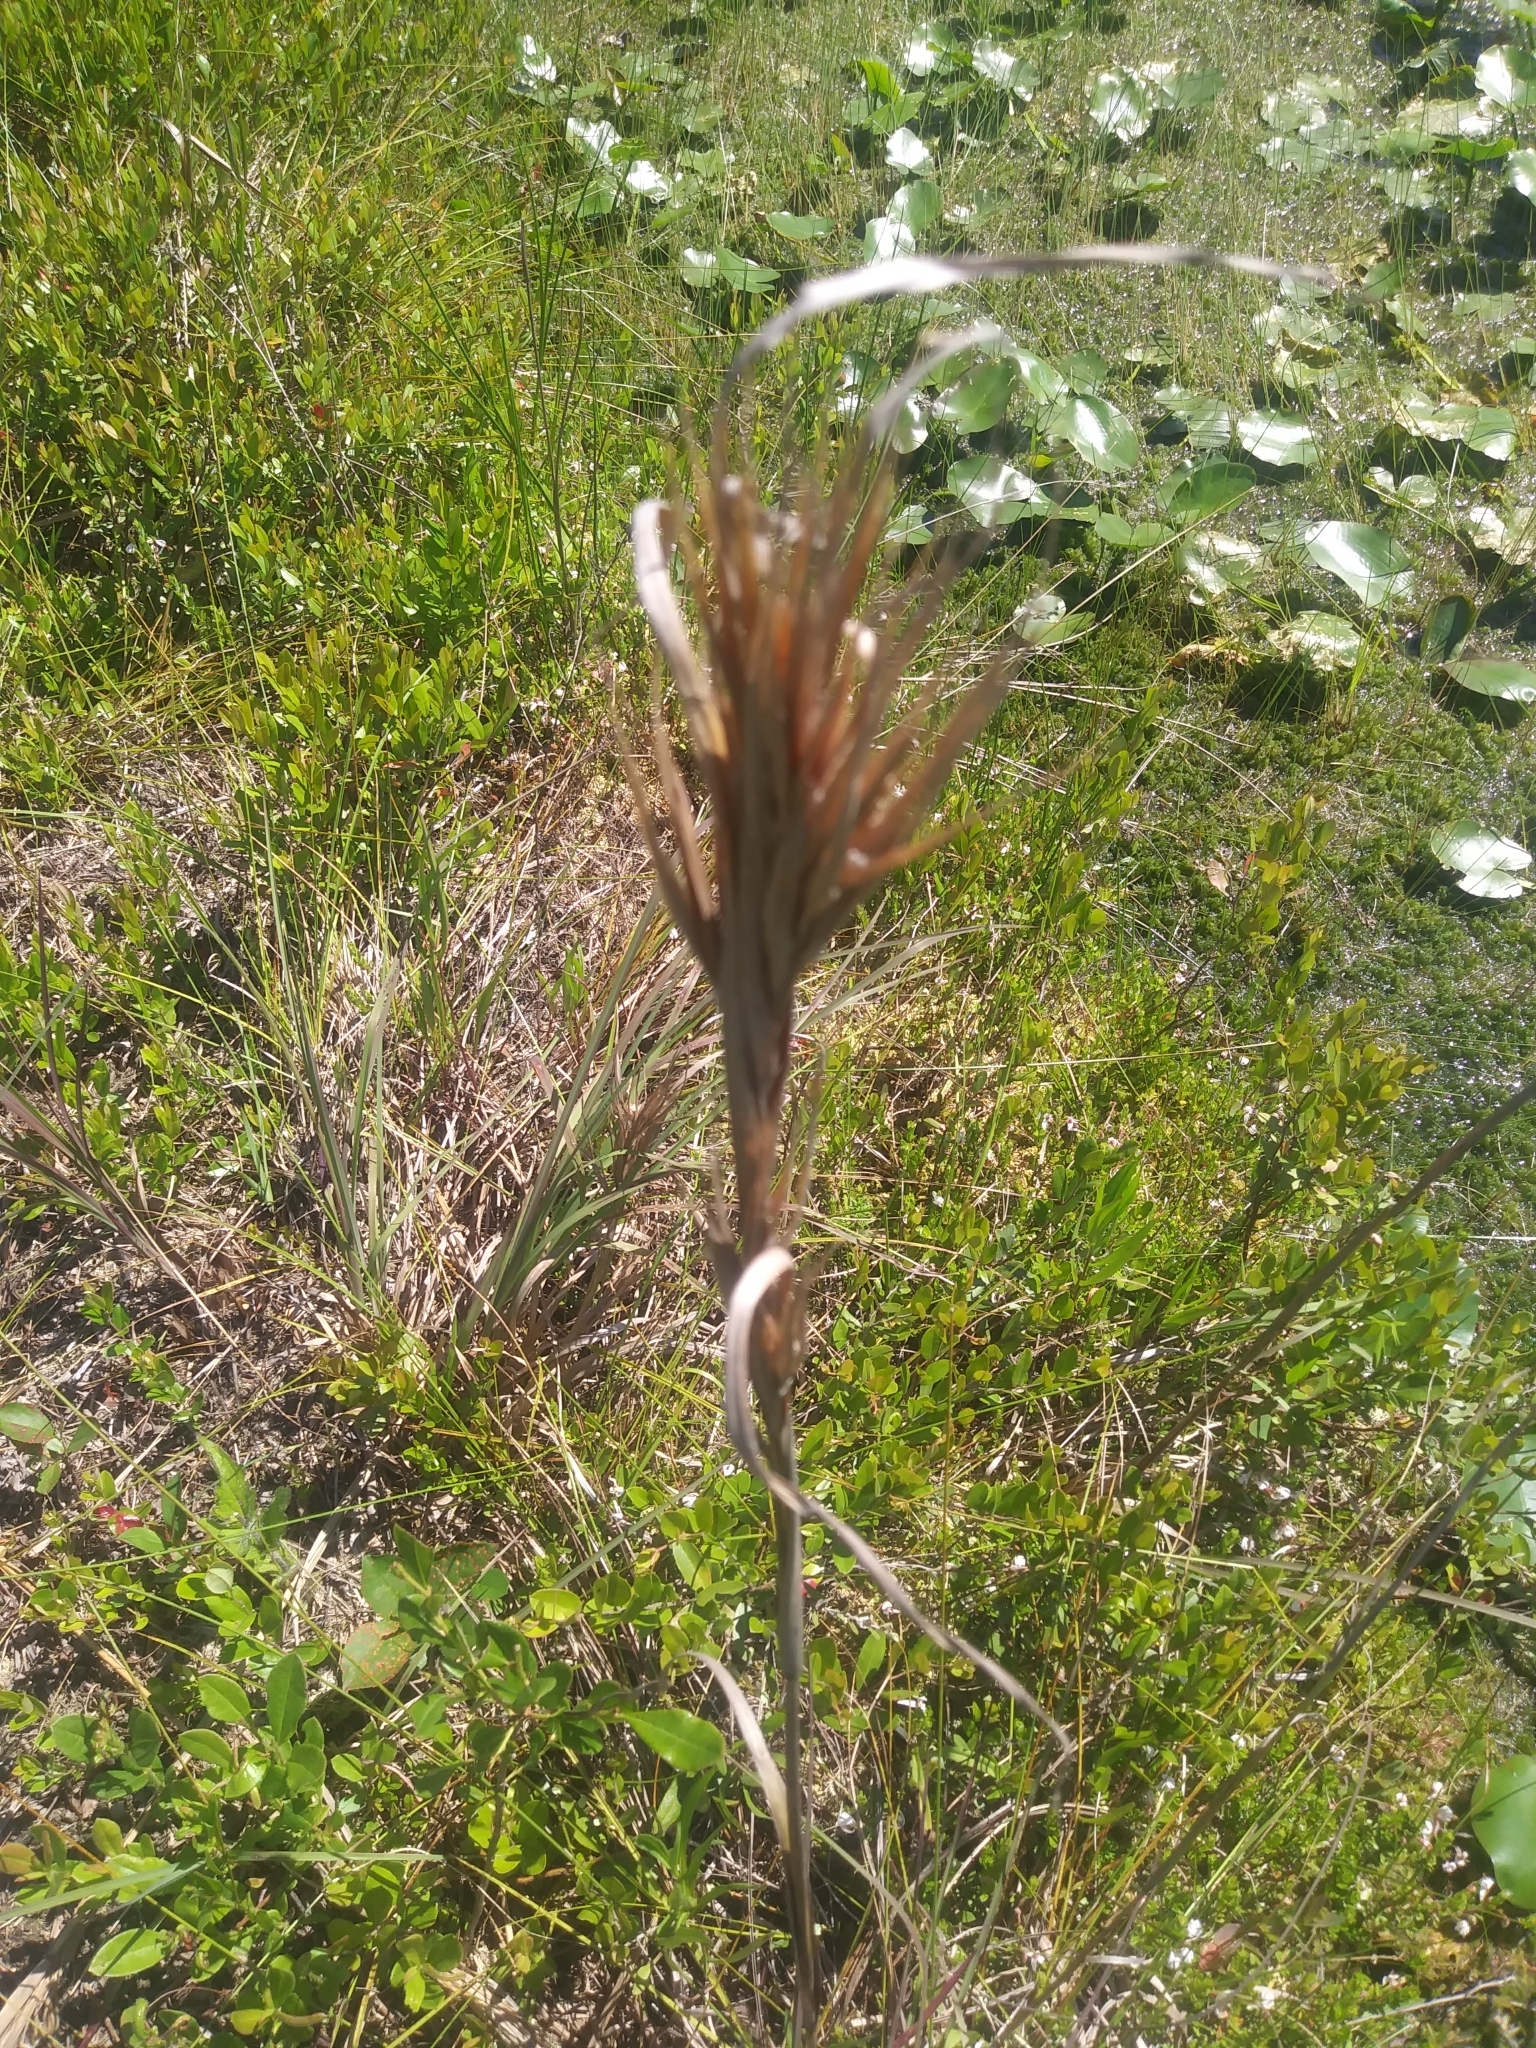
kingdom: Plantae
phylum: Tracheophyta
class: Liliopsida
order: Poales
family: Poaceae
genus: Andropogon
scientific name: Andropogon glomeratus
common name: Bushy beard grass
